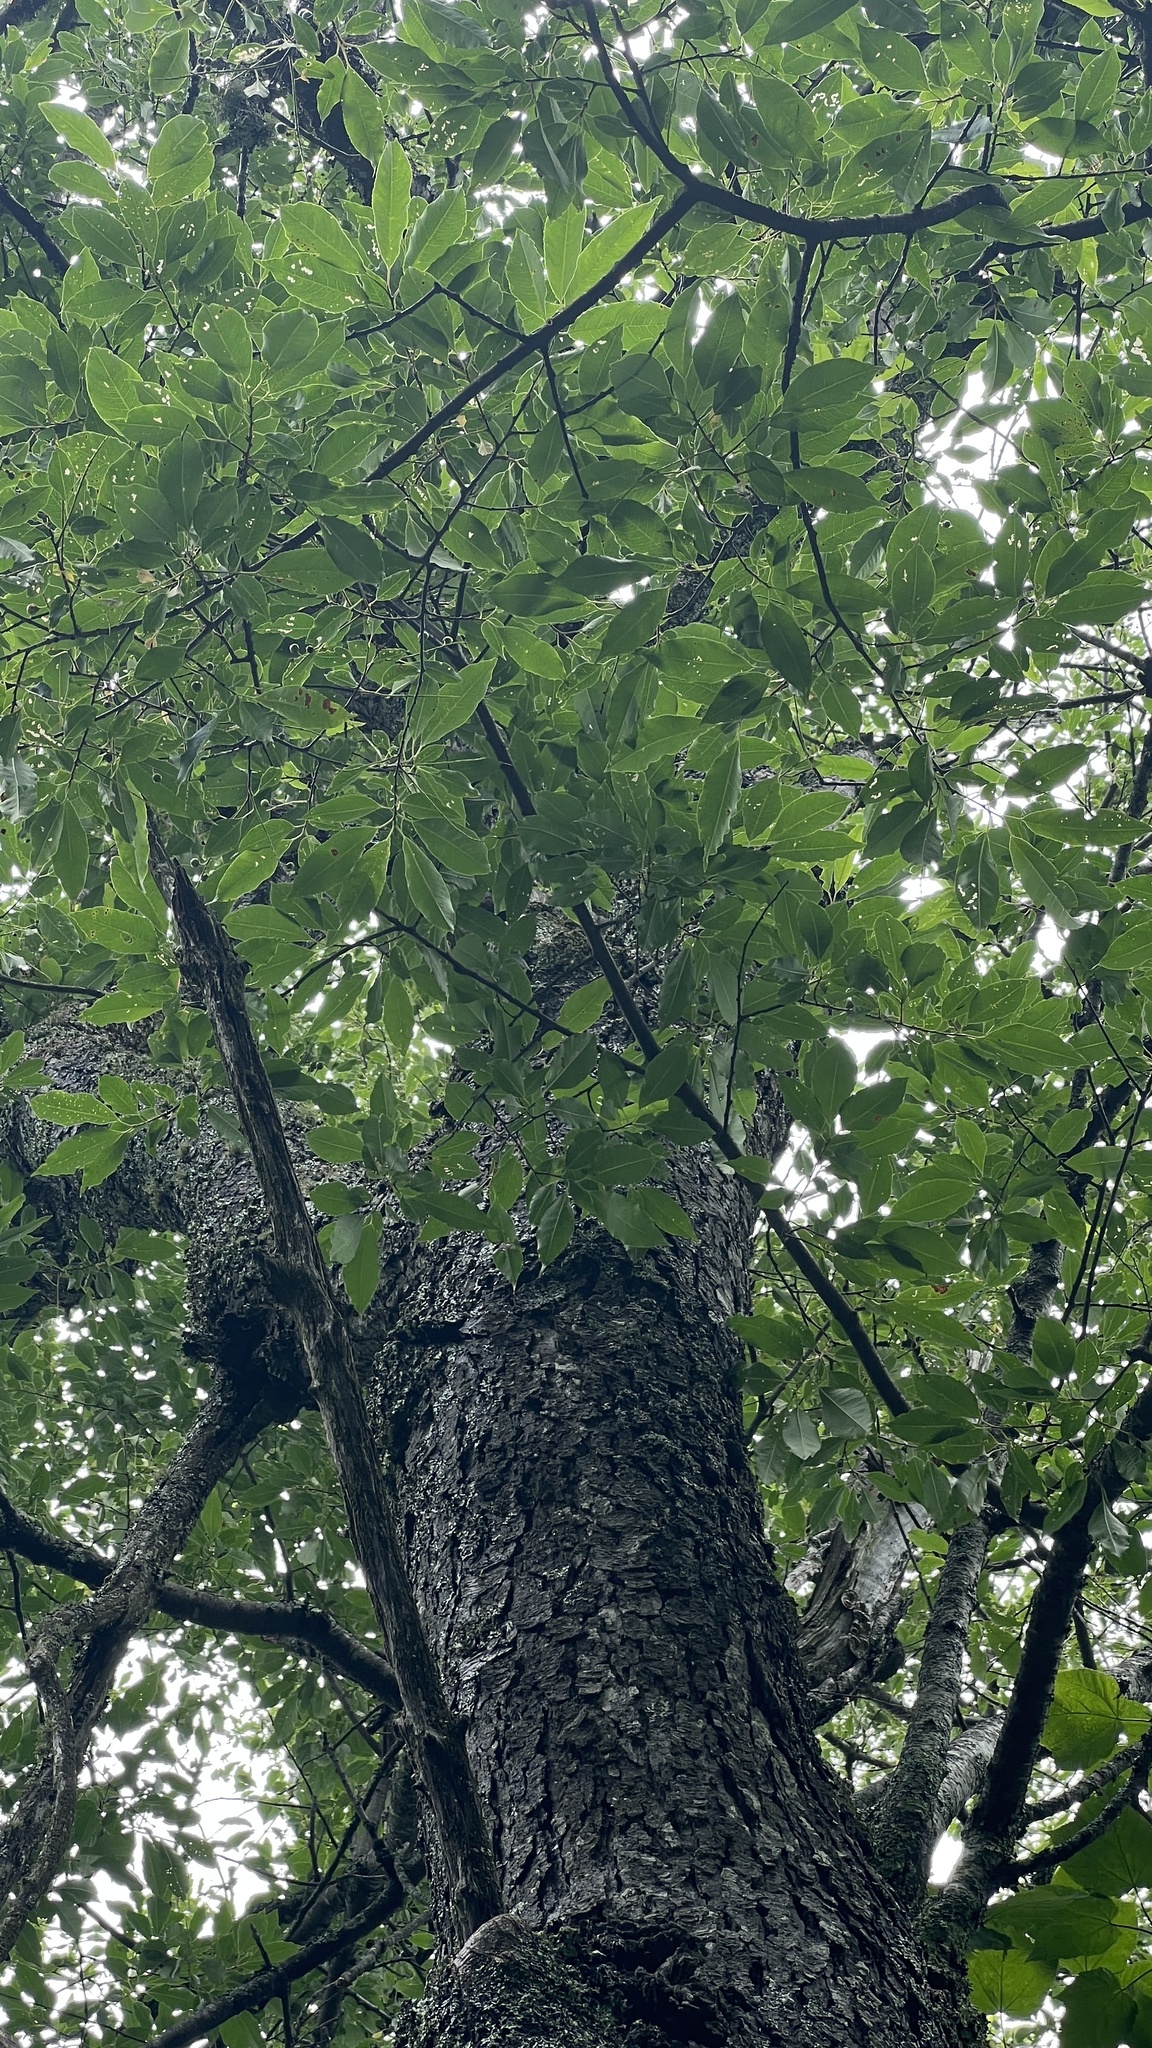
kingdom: Plantae
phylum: Tracheophyta
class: Magnoliopsida
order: Rosales
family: Rosaceae
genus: Prunus
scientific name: Prunus serotina
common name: Black cherry
